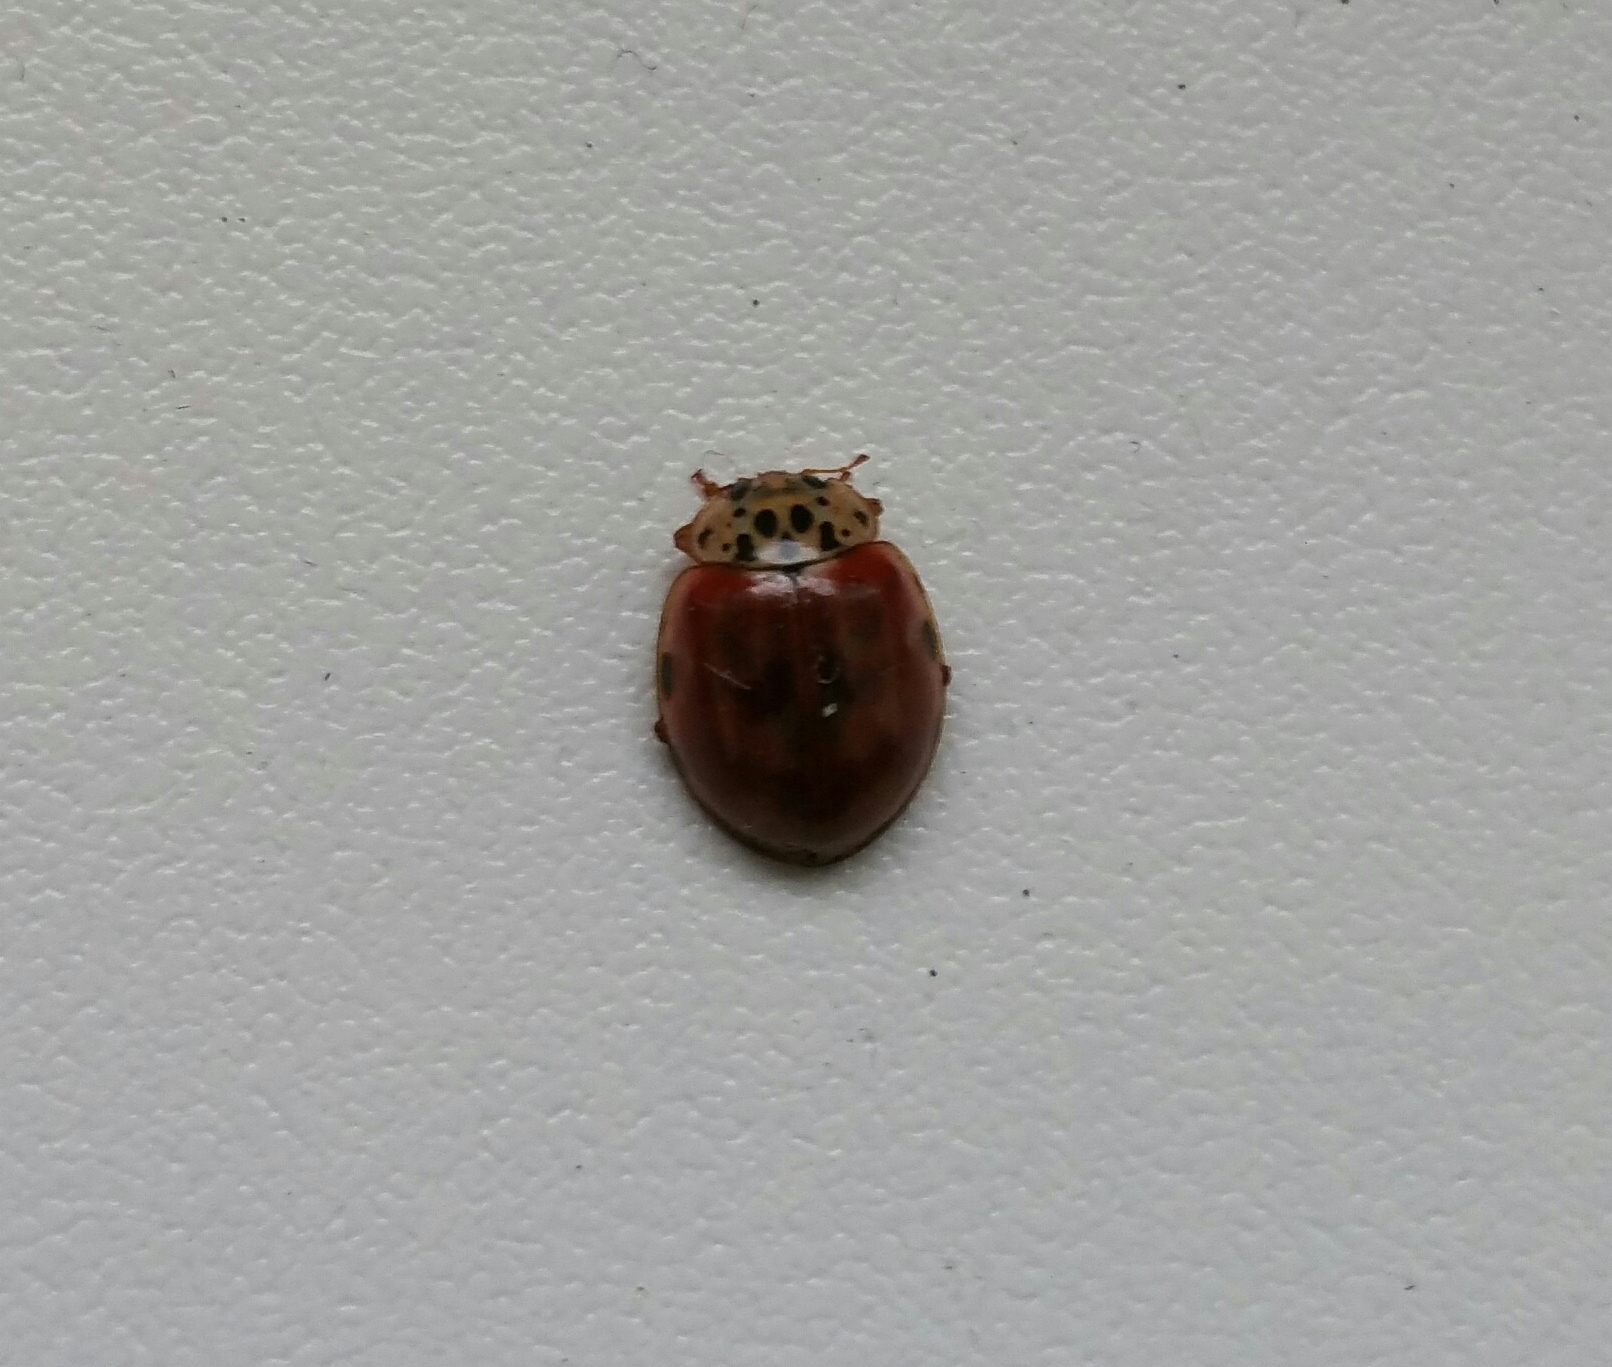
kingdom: Animalia
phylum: Arthropoda
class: Insecta
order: Coleoptera
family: Coccinellidae
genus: Harmonia
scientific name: Harmonia quadripunctata
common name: Cream-streaked ladybird
